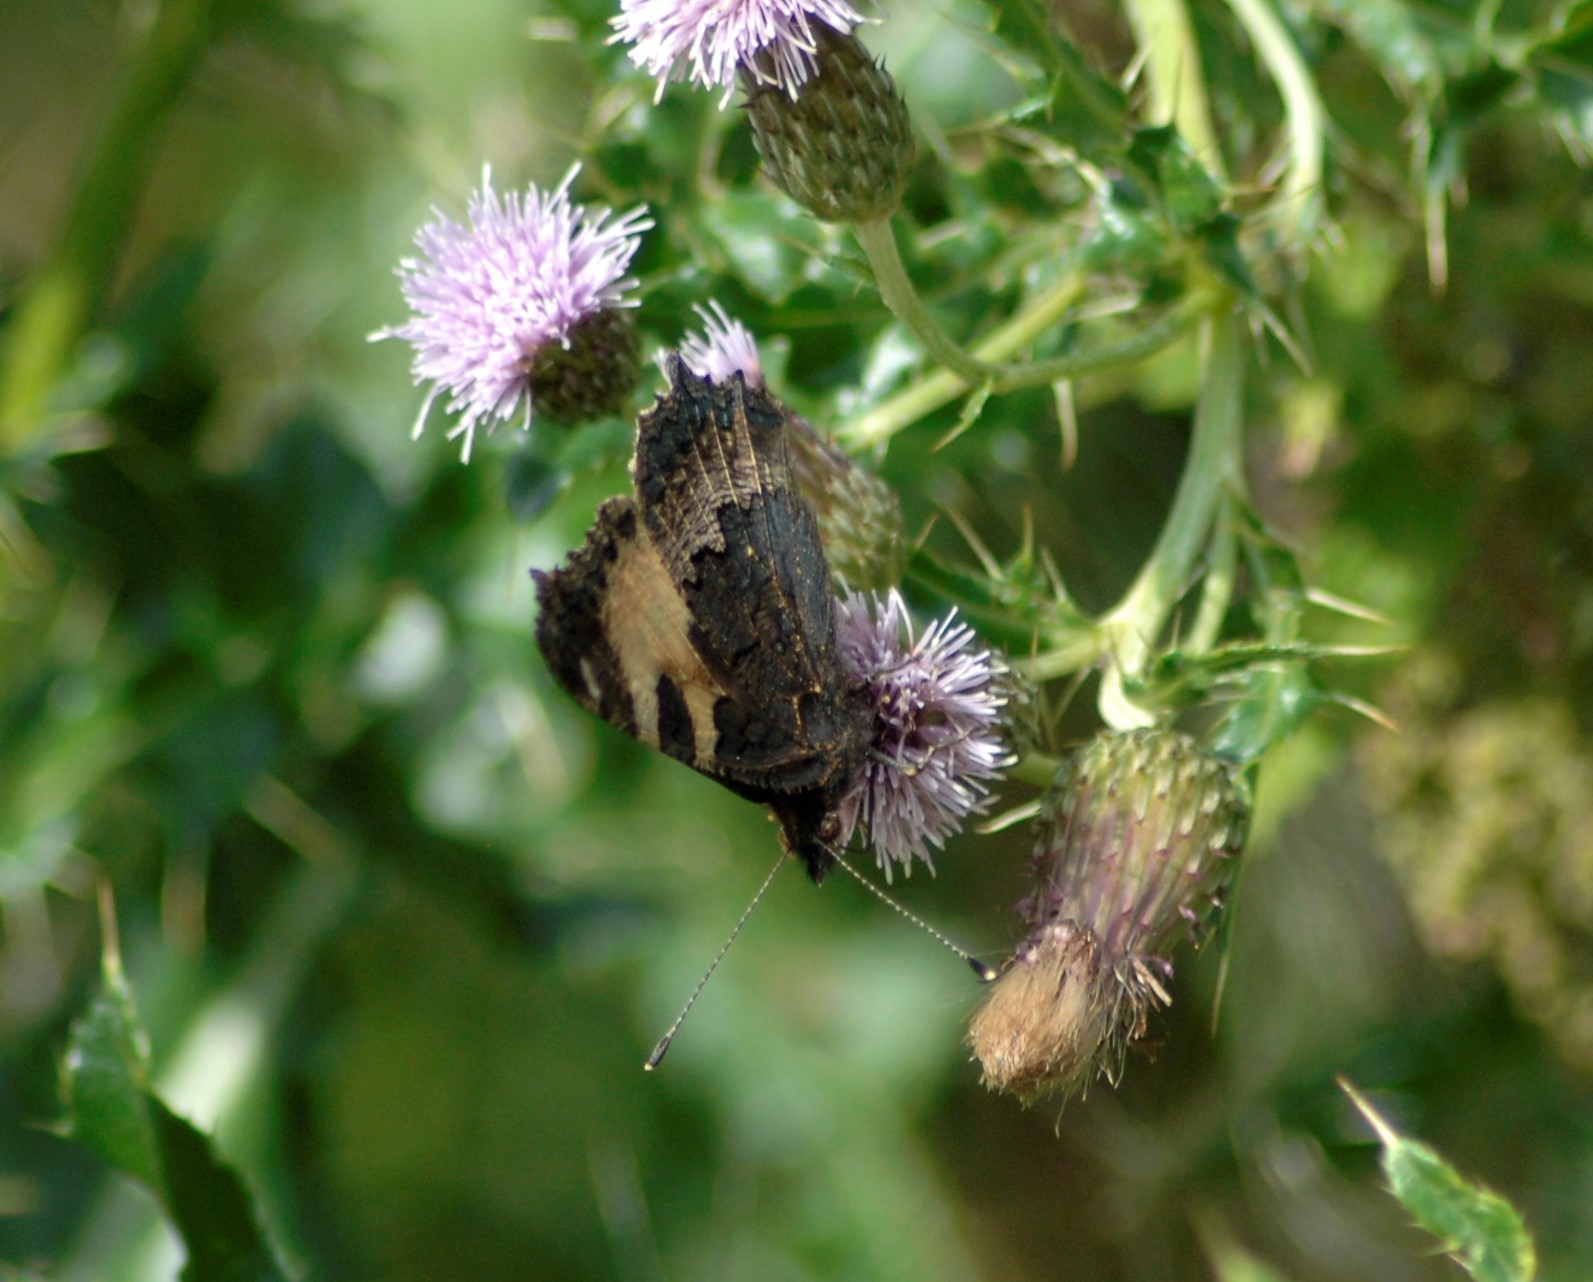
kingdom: Animalia
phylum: Arthropoda
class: Insecta
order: Lepidoptera
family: Nymphalidae
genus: Aglais
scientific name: Aglais urticae
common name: Small tortoiseshell
